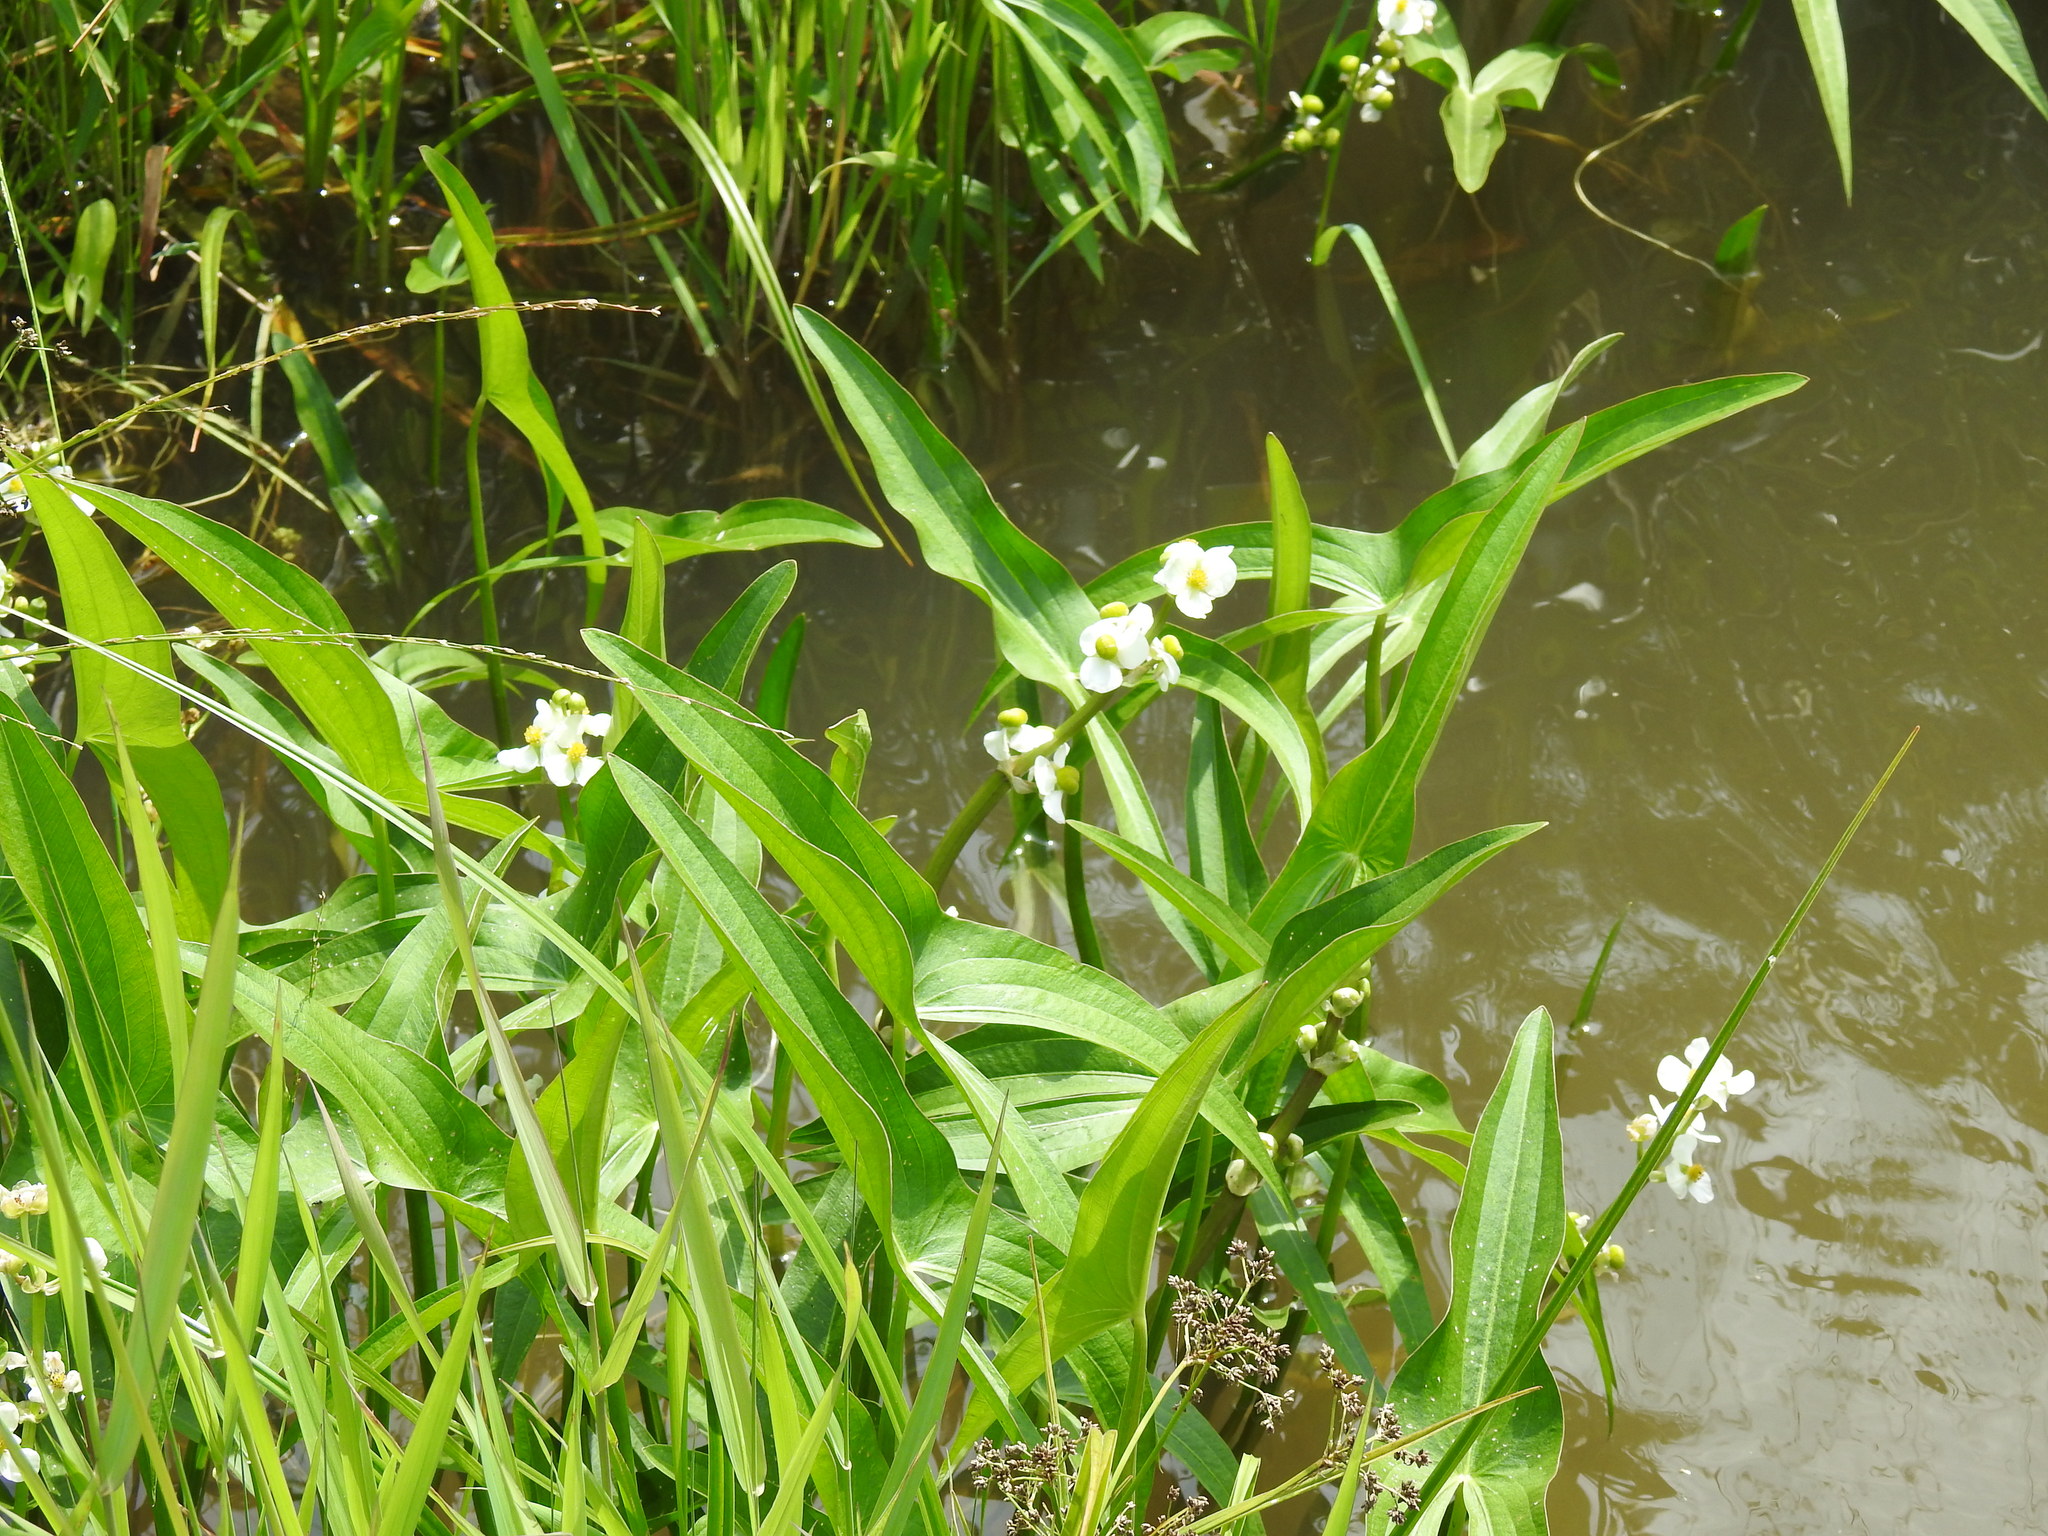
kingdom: Plantae
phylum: Tracheophyta
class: Liliopsida
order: Alismatales
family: Alismataceae
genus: Sagittaria
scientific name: Sagittaria latifolia
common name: Duck-potato
